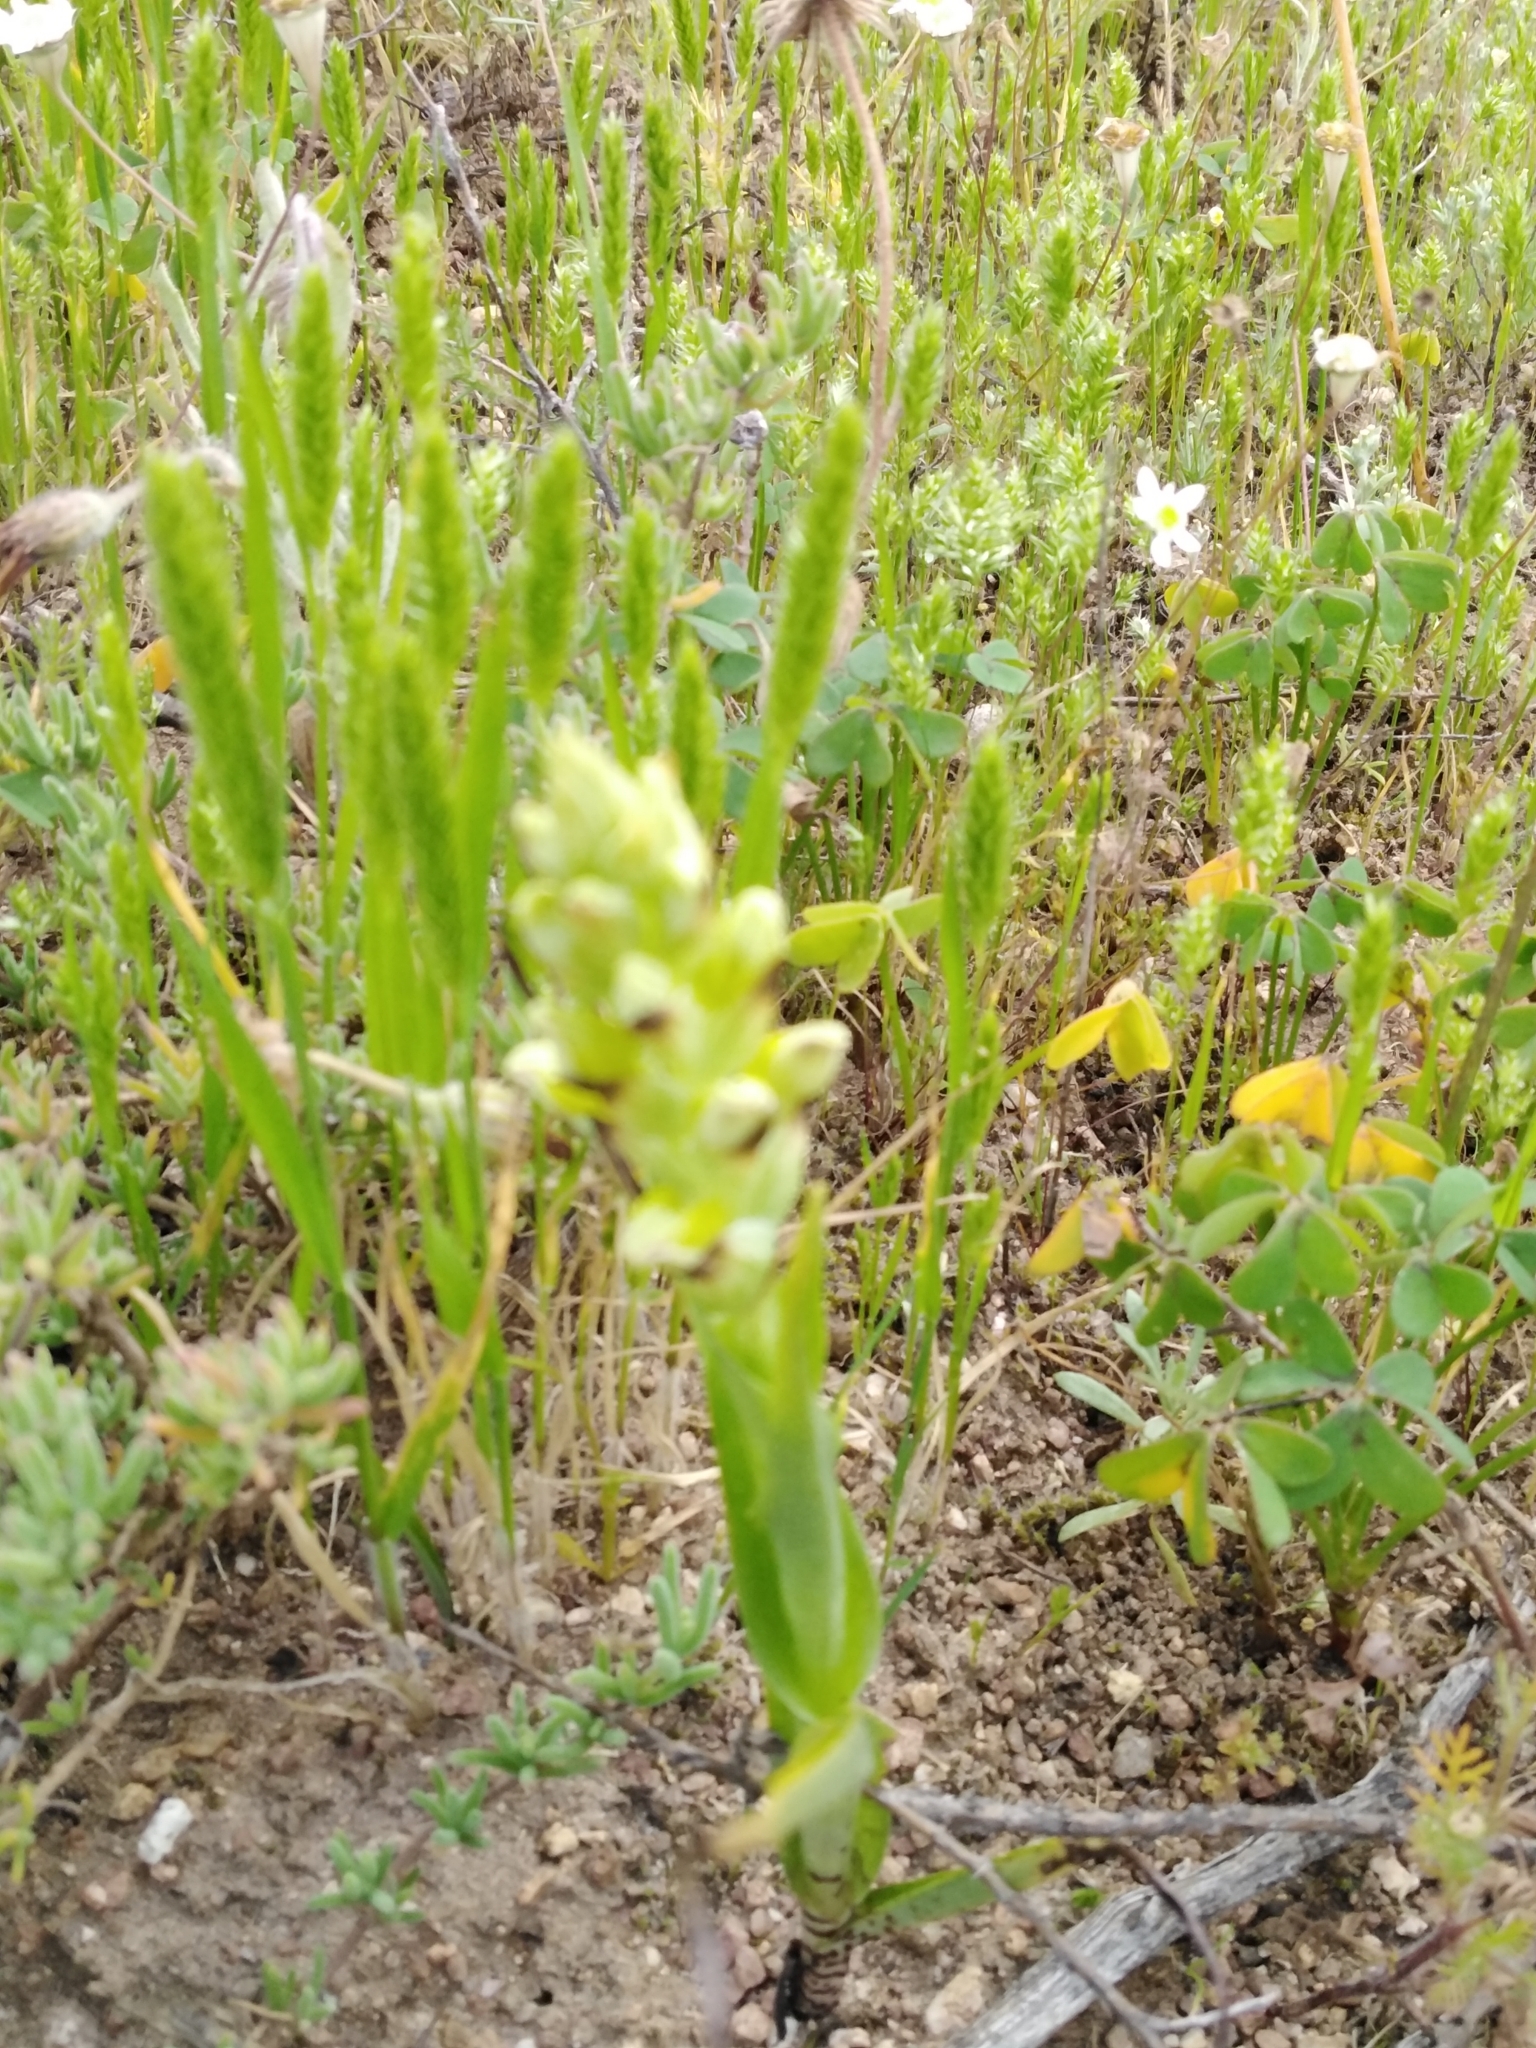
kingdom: Plantae
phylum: Tracheophyta
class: Liliopsida
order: Asparagales
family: Orchidaceae
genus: Corycium
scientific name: Corycium orobanchoides
